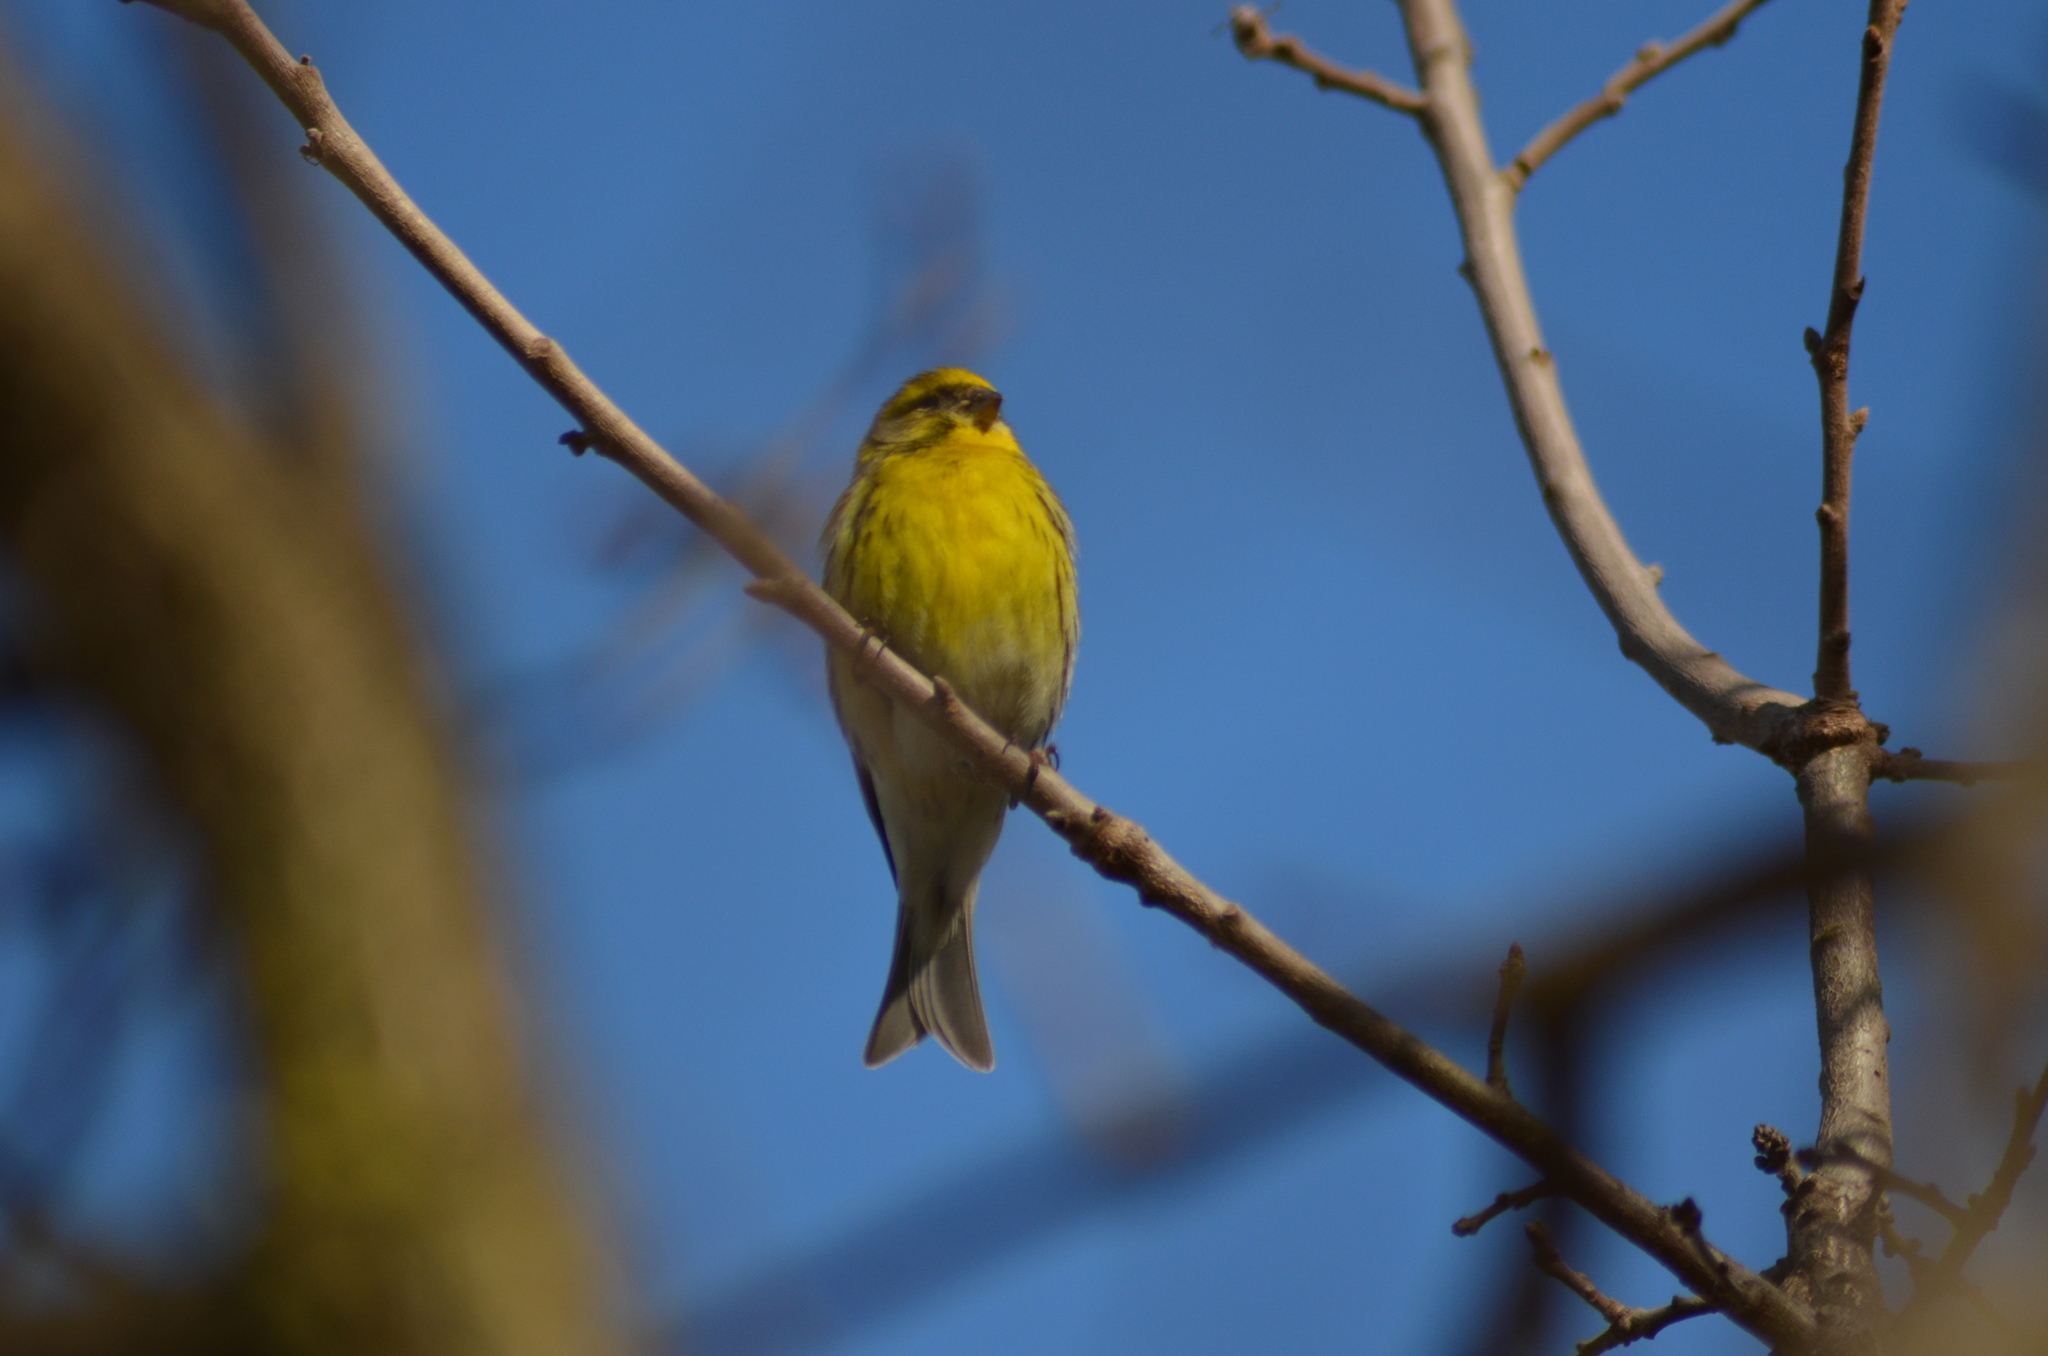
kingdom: Animalia
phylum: Chordata
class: Aves
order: Passeriformes
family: Fringillidae
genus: Serinus
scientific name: Serinus serinus
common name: European serin
